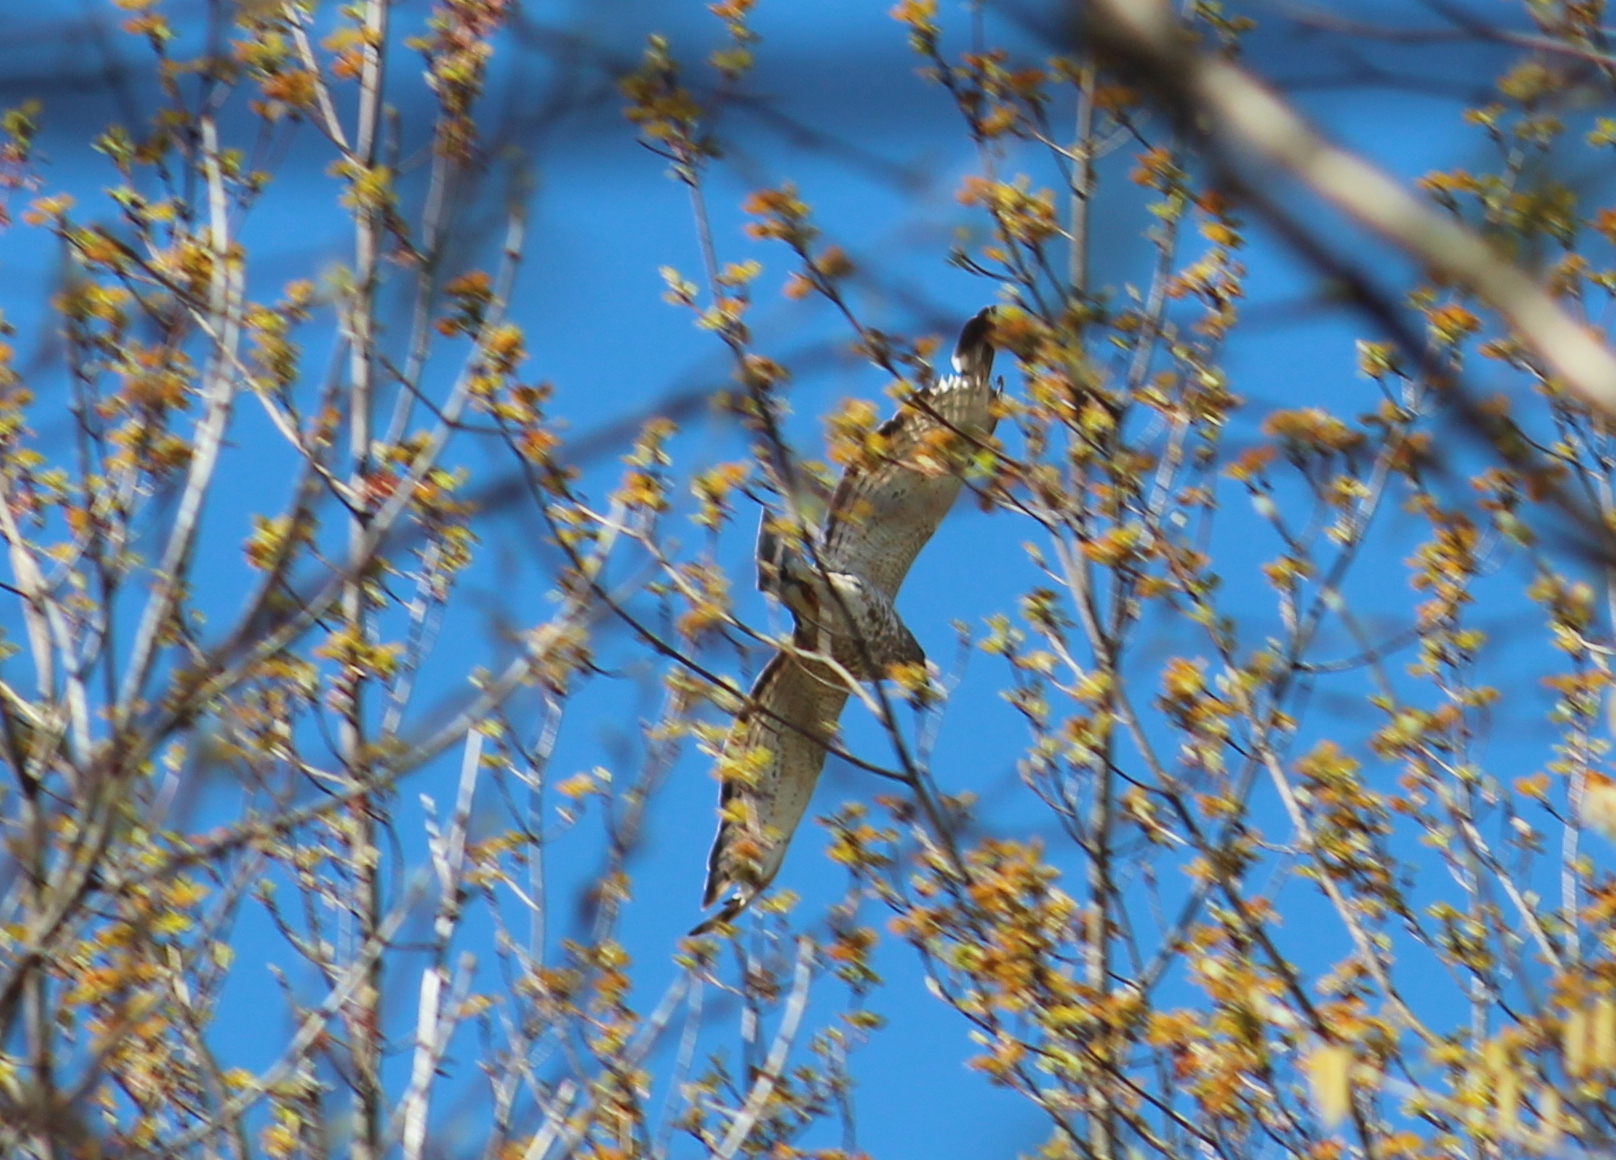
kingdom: Animalia
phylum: Chordata
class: Aves
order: Accipitriformes
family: Accipitridae
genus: Buteo
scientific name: Buteo platypterus
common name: Broad-winged hawk
